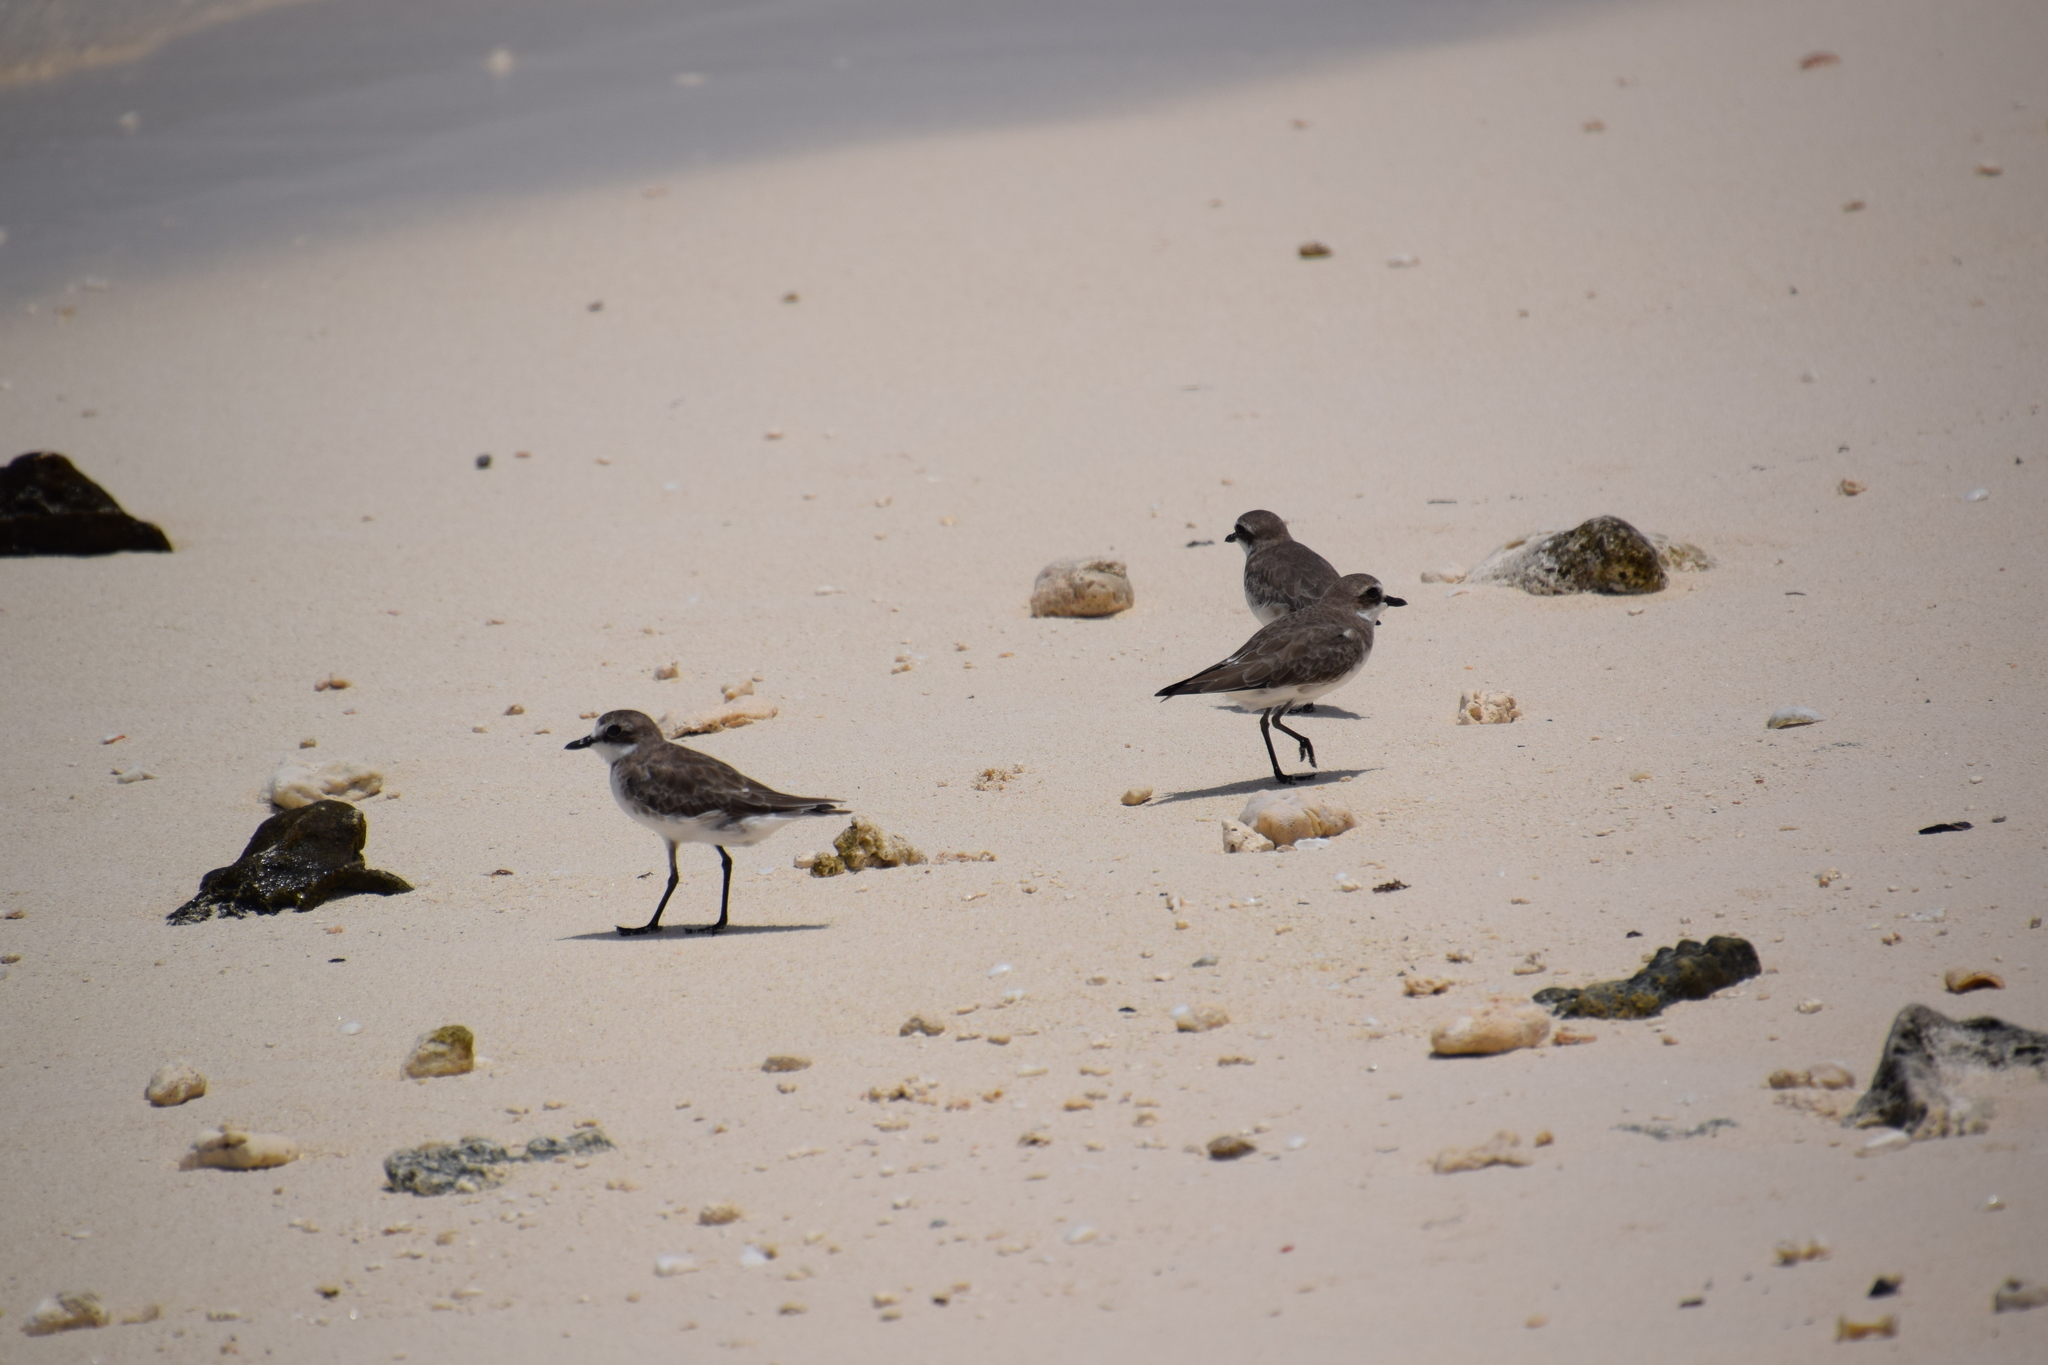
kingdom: Animalia
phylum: Chordata
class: Aves
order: Charadriiformes
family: Charadriidae
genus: Anarhynchus
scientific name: Anarhynchus
